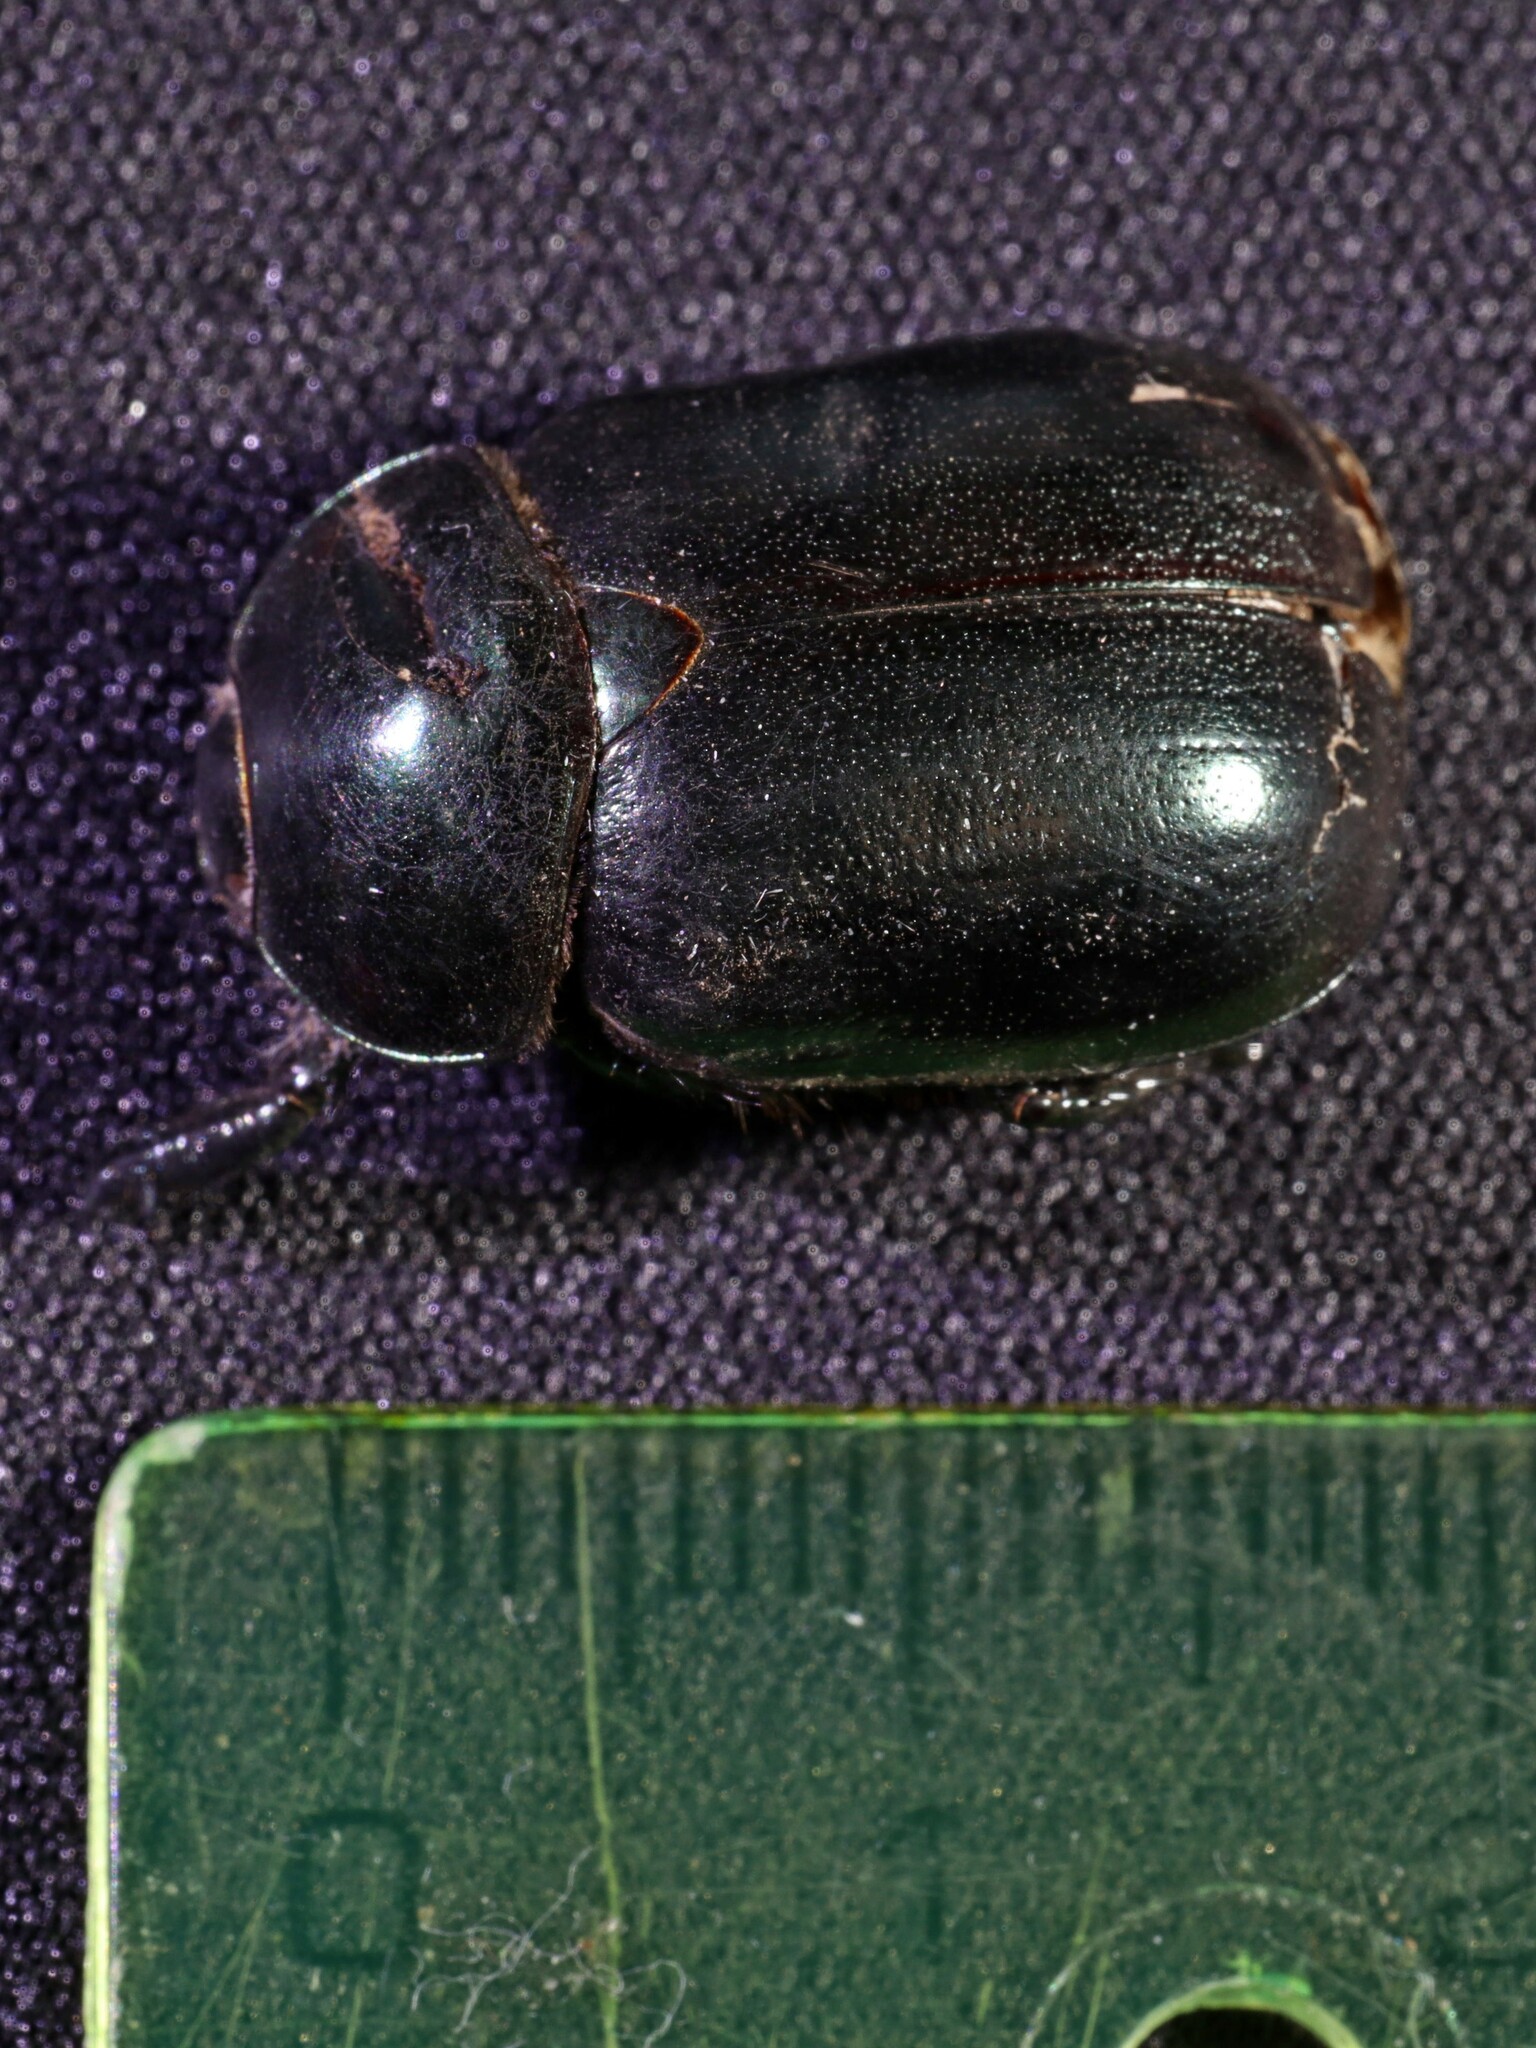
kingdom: Animalia
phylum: Arthropoda
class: Insecta
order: Coleoptera
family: Scarabaeidae
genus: Oogenius
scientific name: Oogenius chilensis
